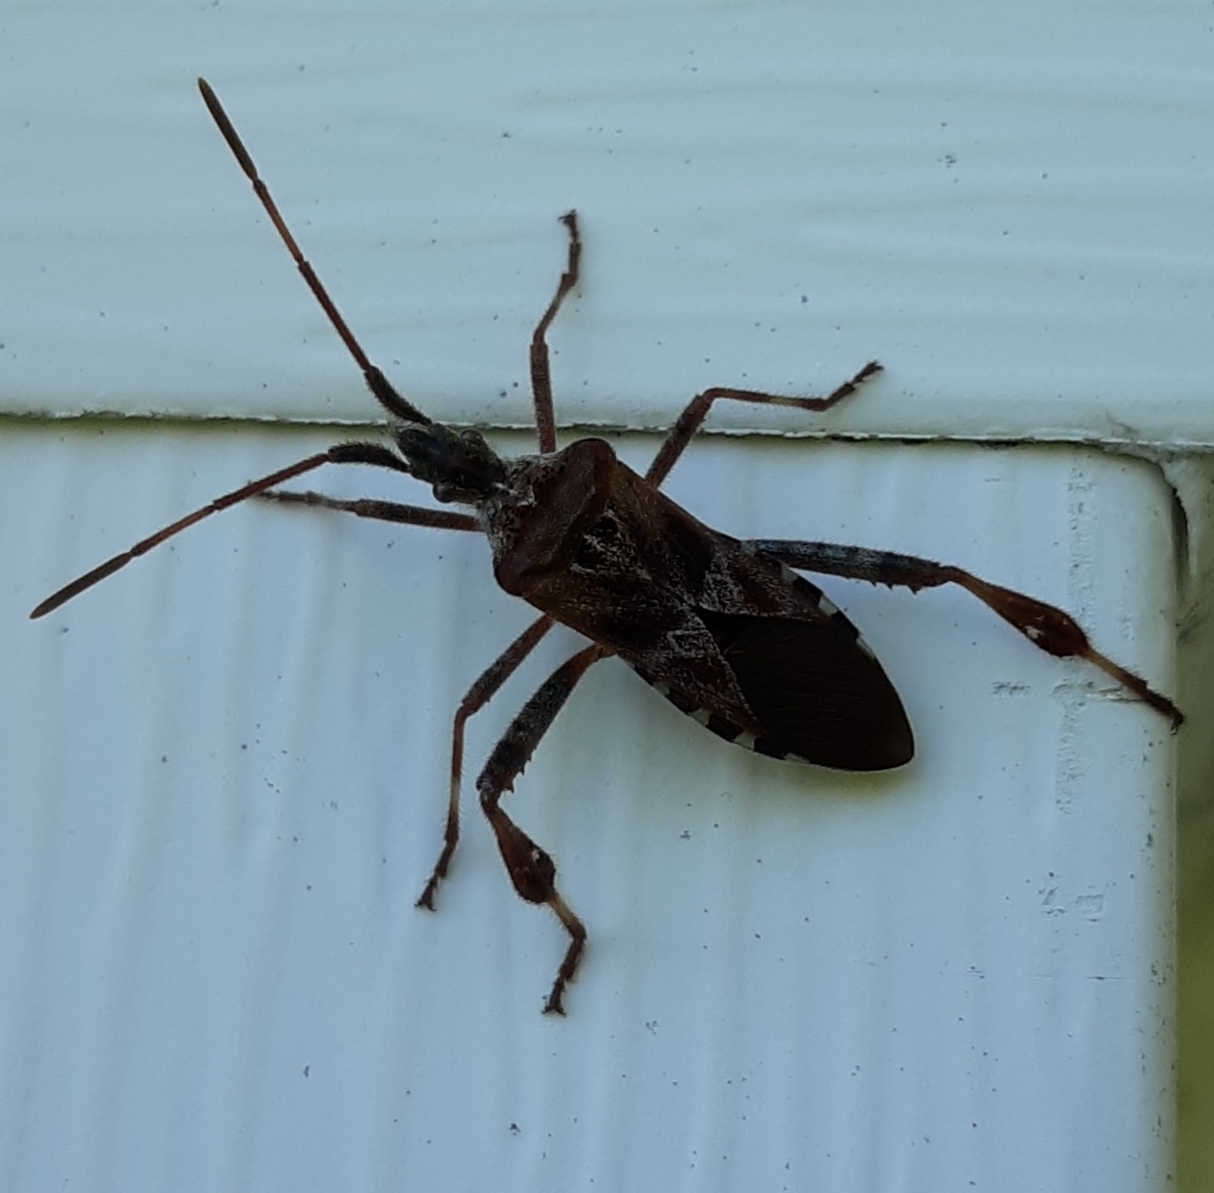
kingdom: Animalia
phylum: Arthropoda
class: Insecta
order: Hemiptera
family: Coreidae
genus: Leptoglossus
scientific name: Leptoglossus occidentalis
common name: Western conifer-seed bug
